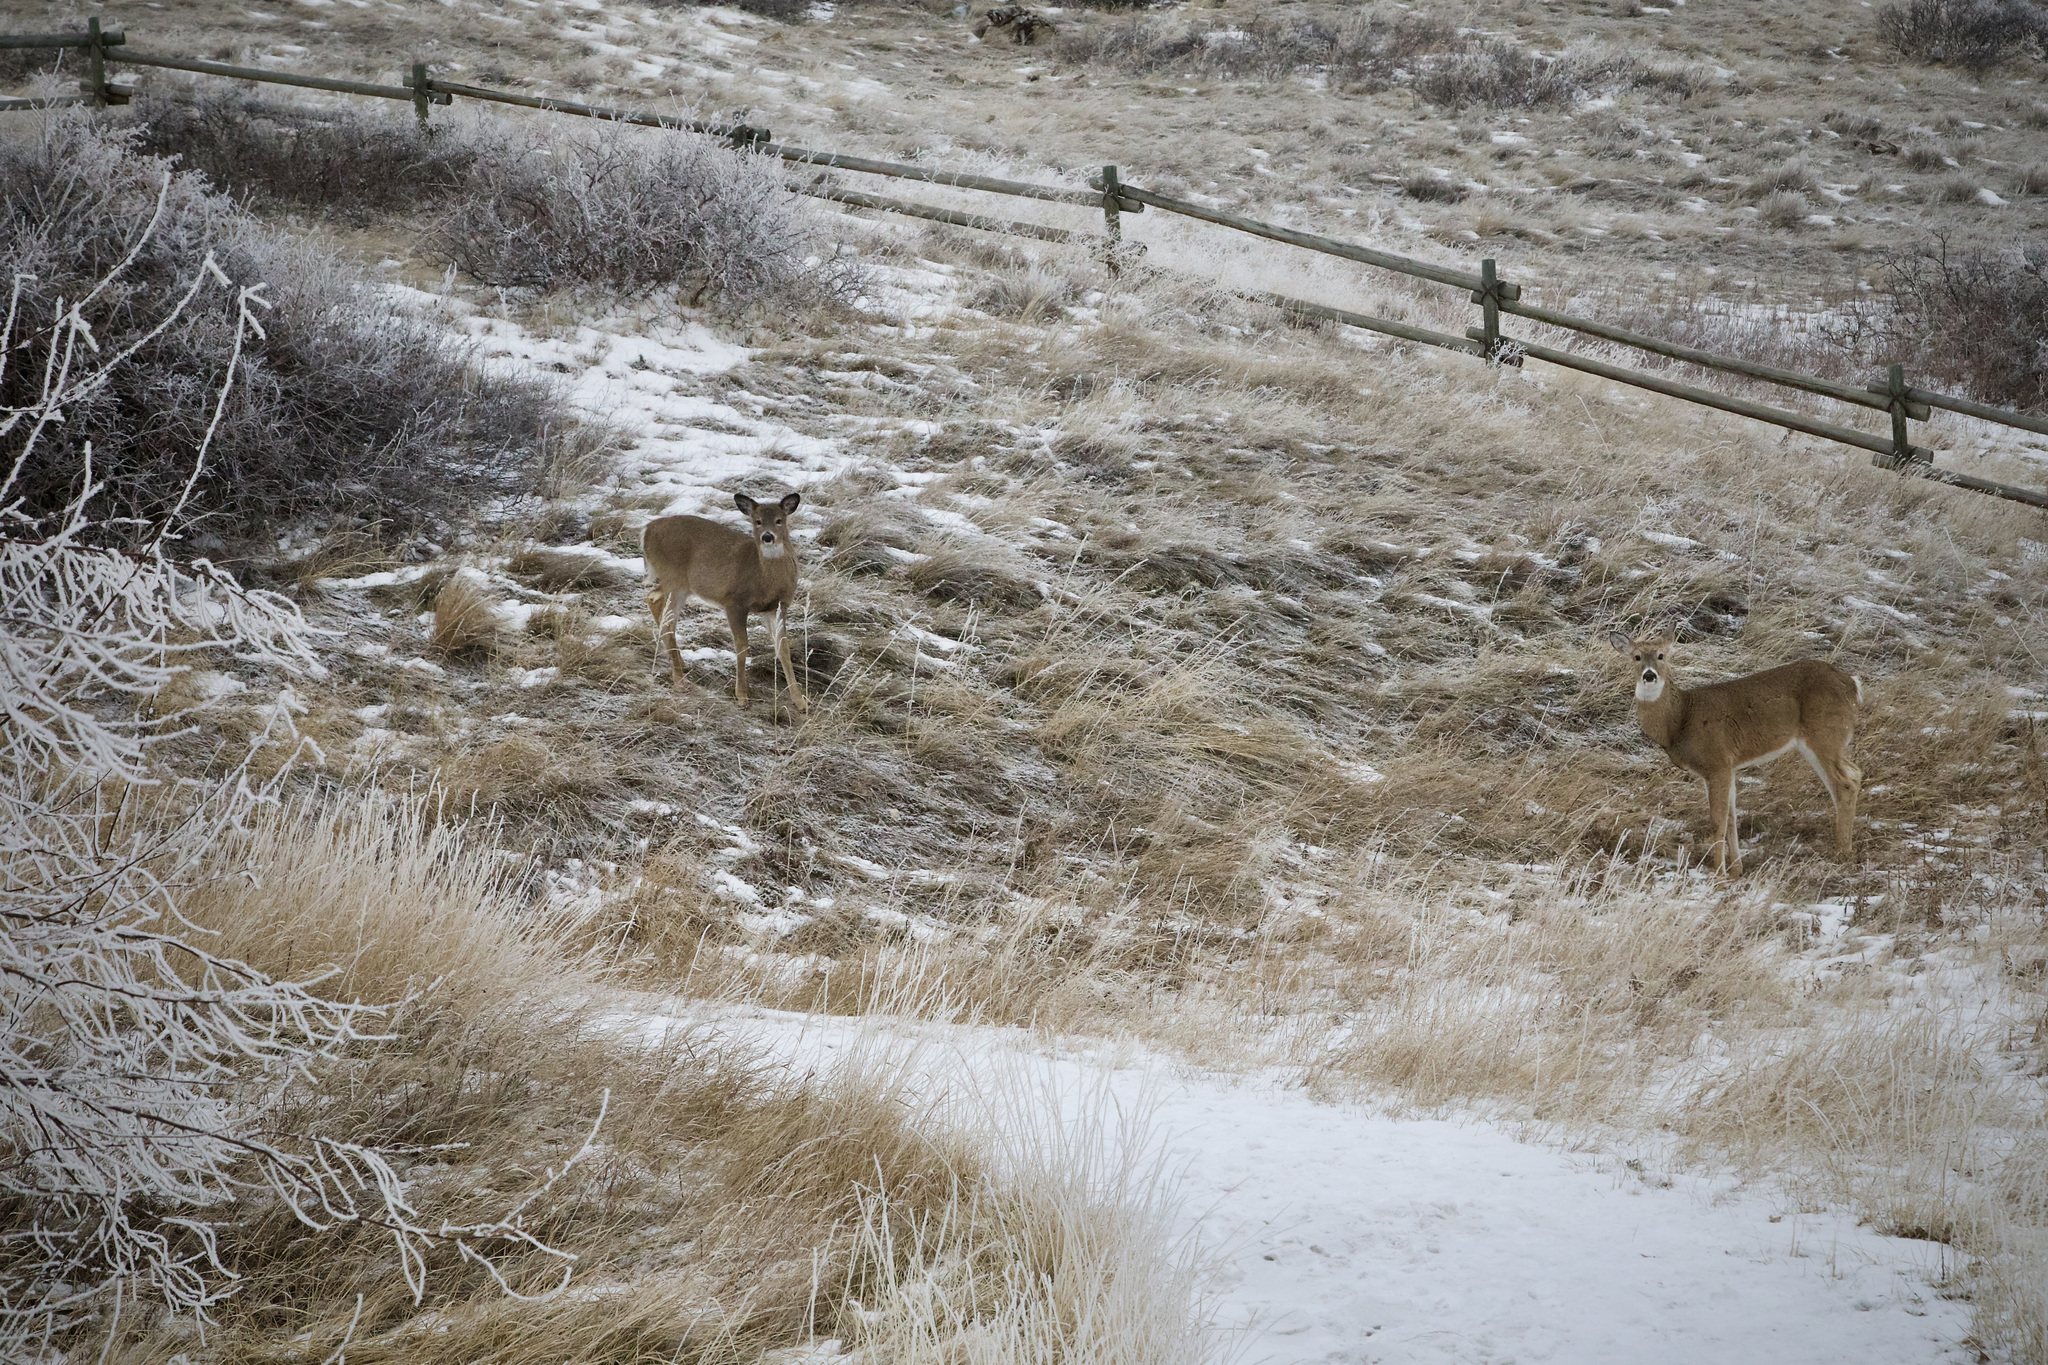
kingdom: Animalia
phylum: Chordata
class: Mammalia
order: Artiodactyla
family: Cervidae
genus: Odocoileus
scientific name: Odocoileus virginianus
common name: White-tailed deer
